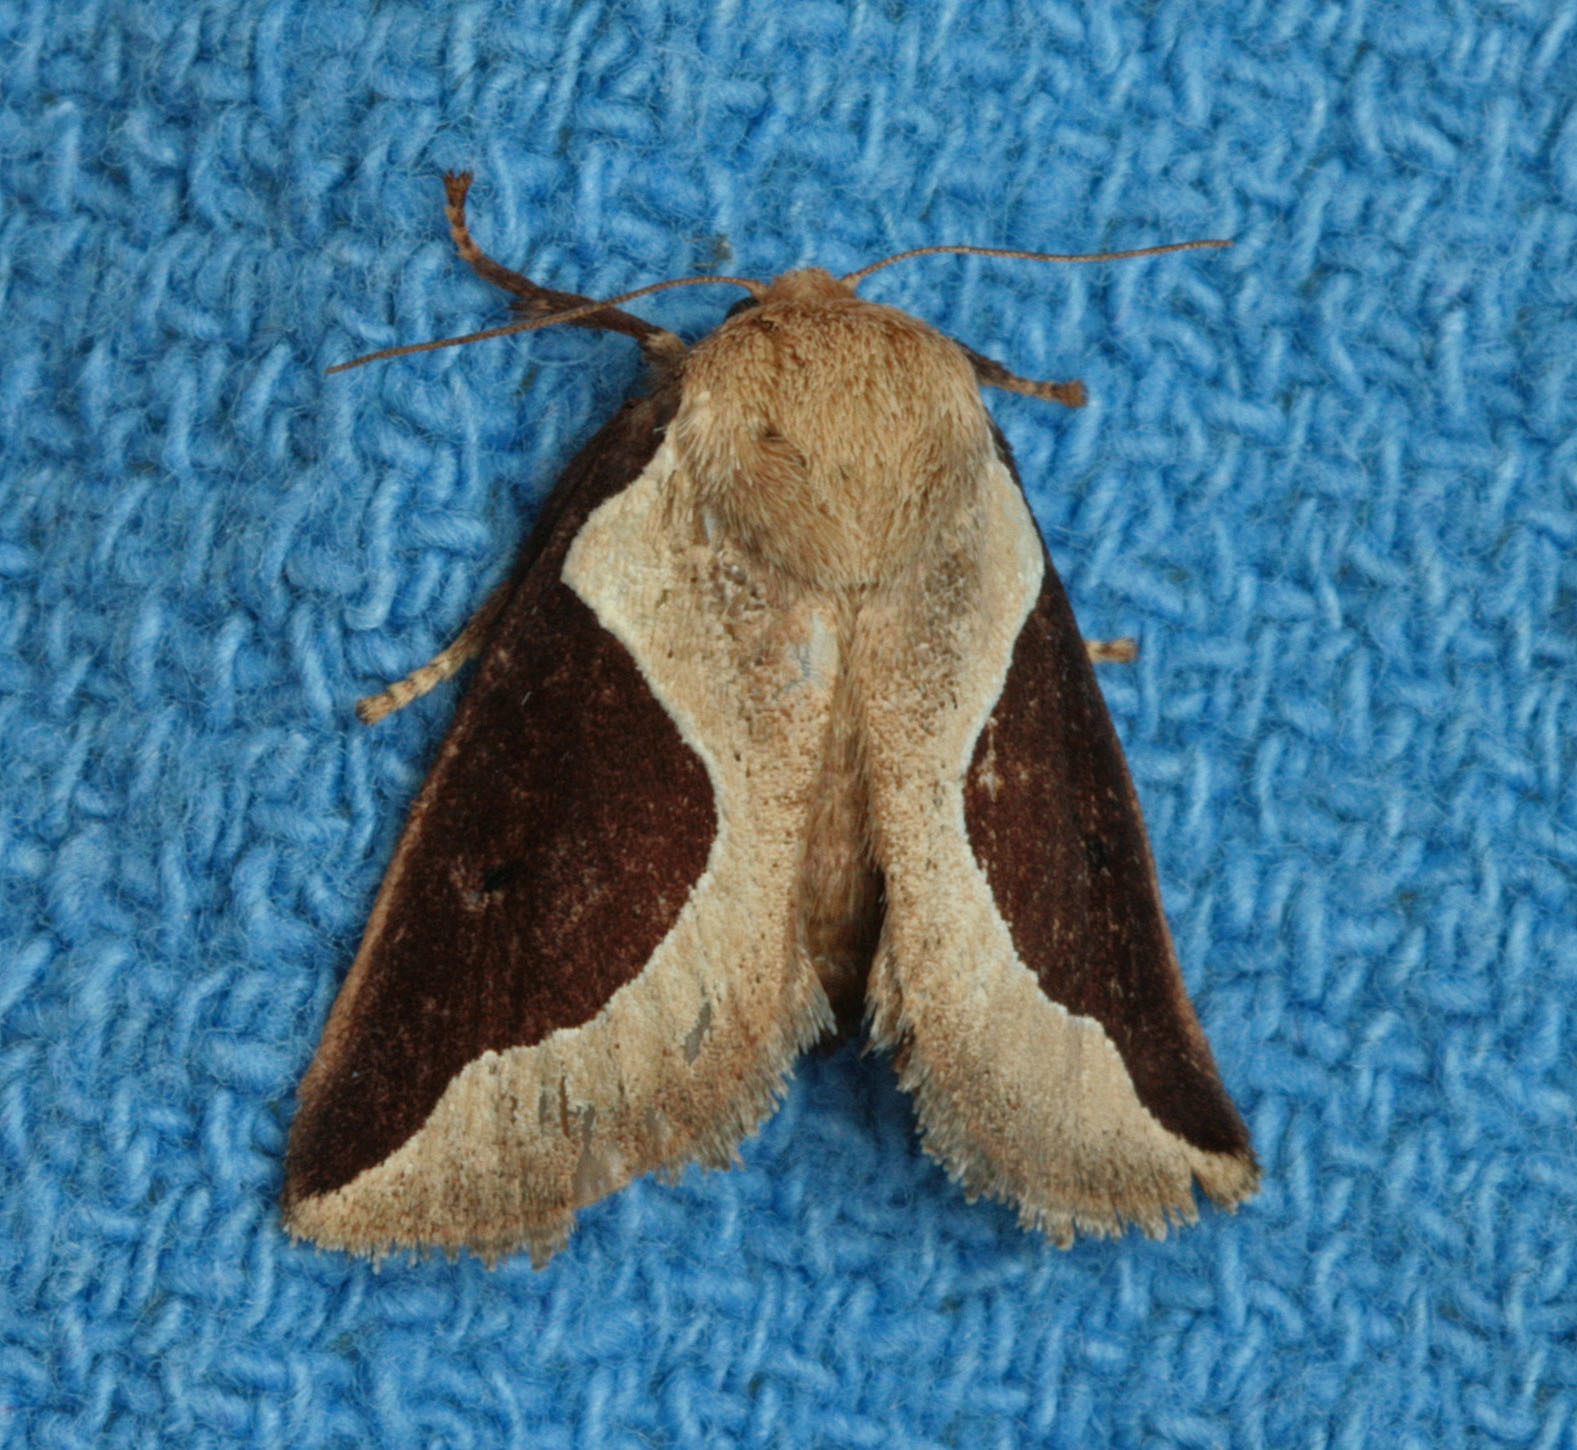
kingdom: Animalia
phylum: Arthropoda
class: Insecta
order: Lepidoptera
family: Limacodidae
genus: Prolimacodes
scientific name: Prolimacodes badia
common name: Skiff moth
